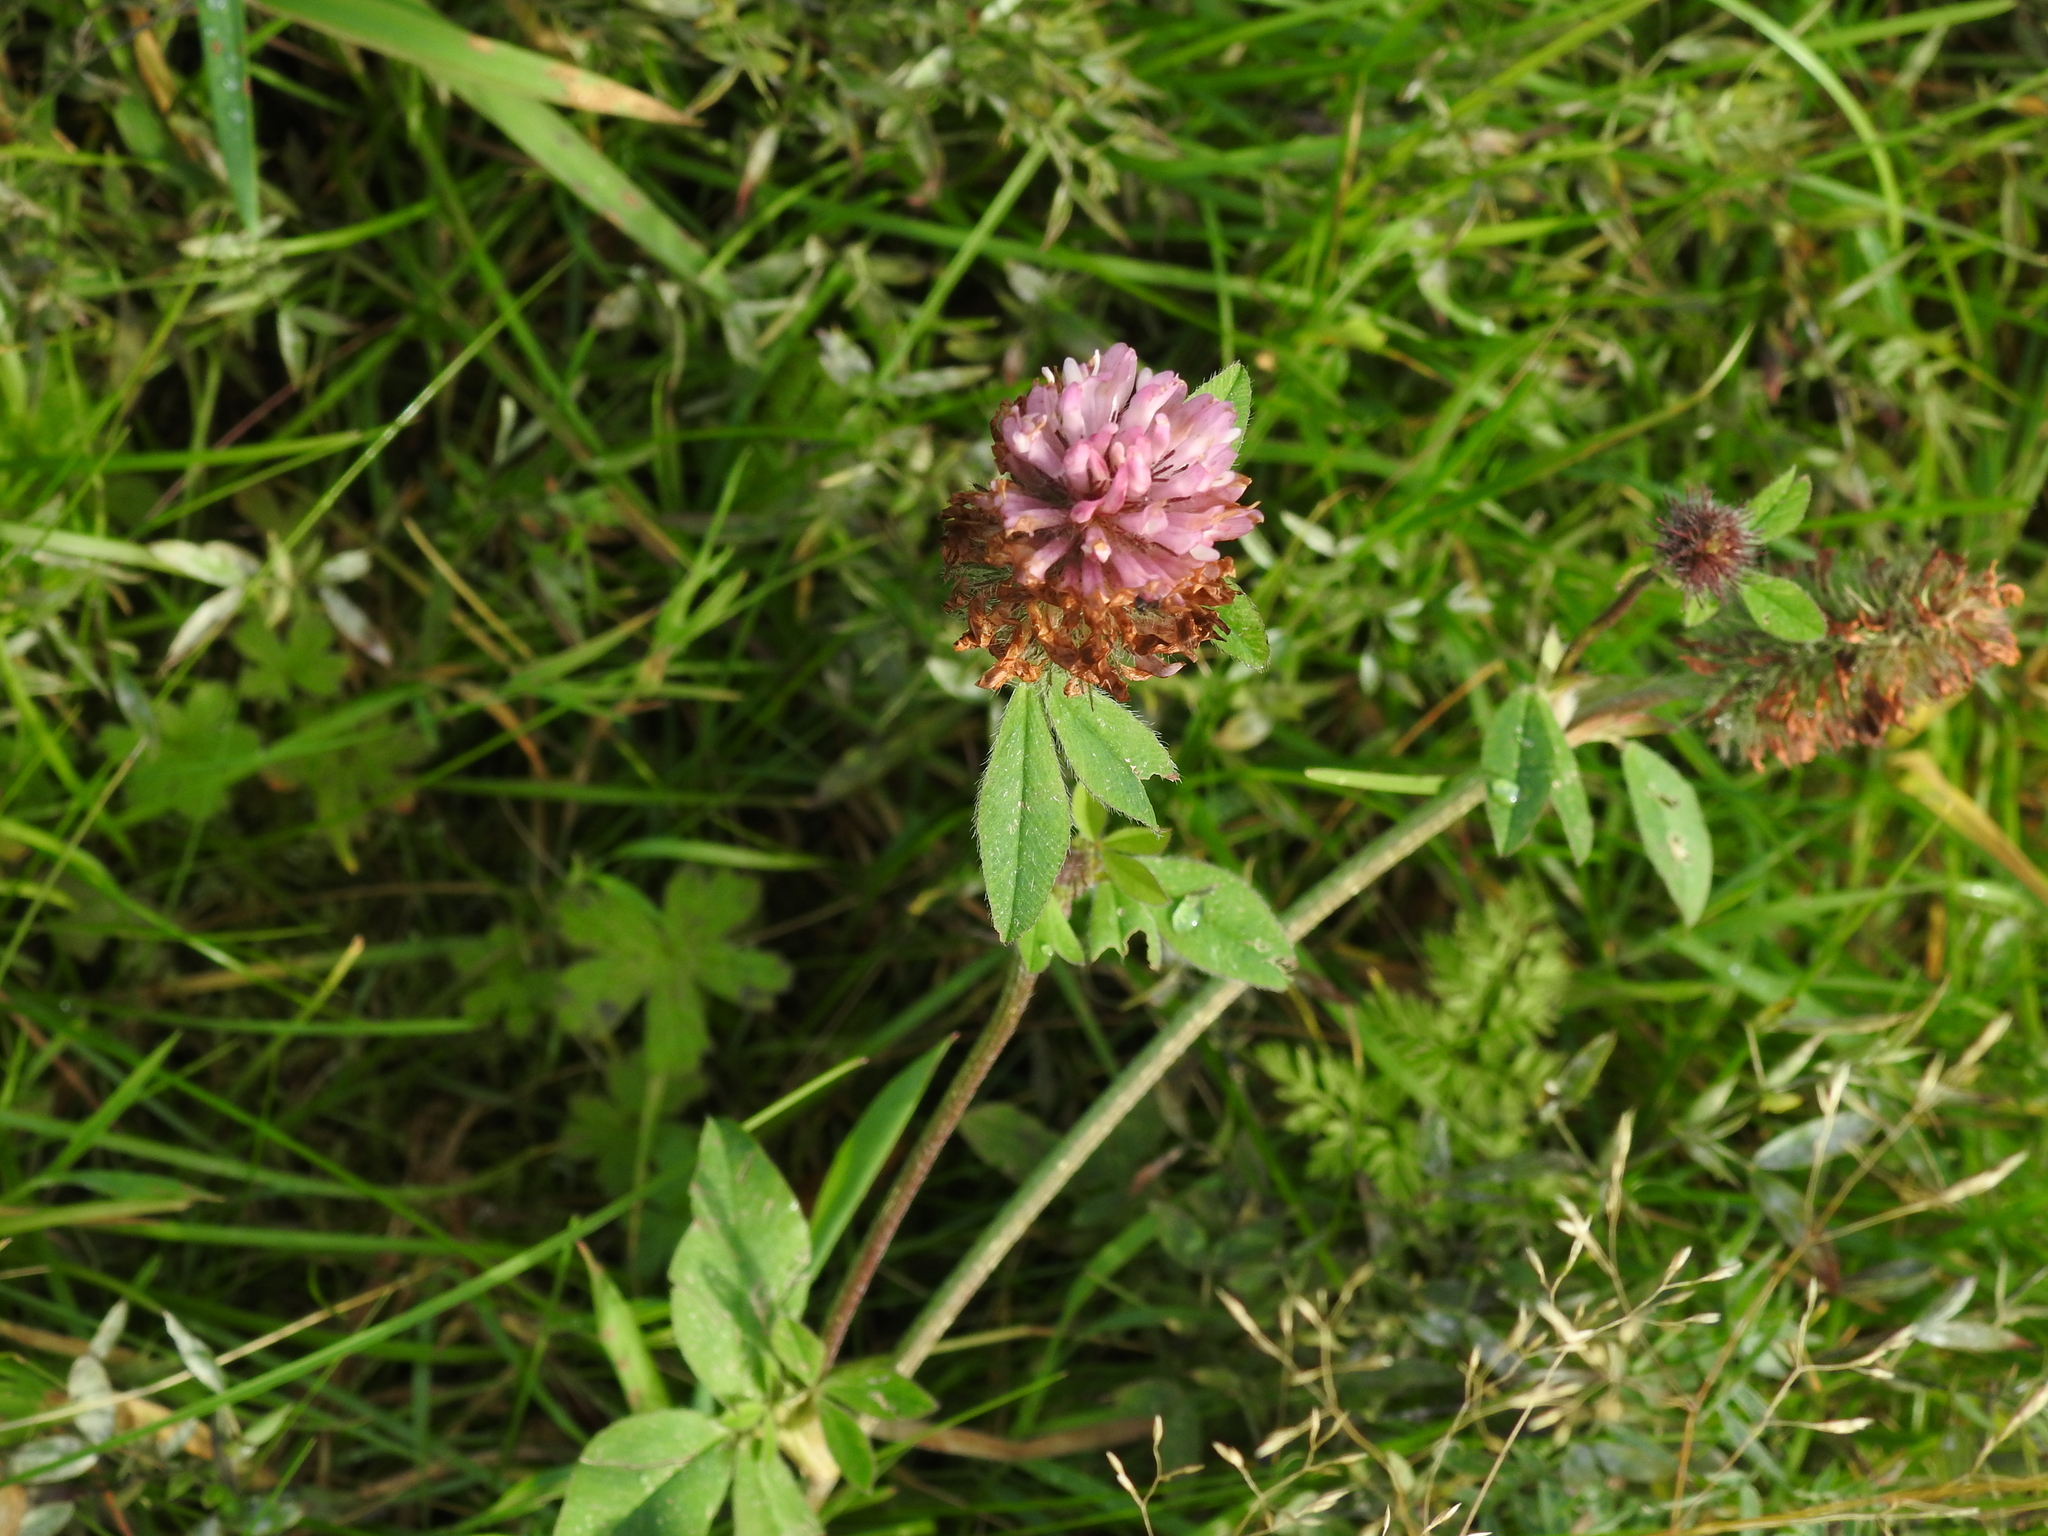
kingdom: Plantae
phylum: Tracheophyta
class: Magnoliopsida
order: Fabales
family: Fabaceae
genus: Trifolium
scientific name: Trifolium pratense
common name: Red clover
